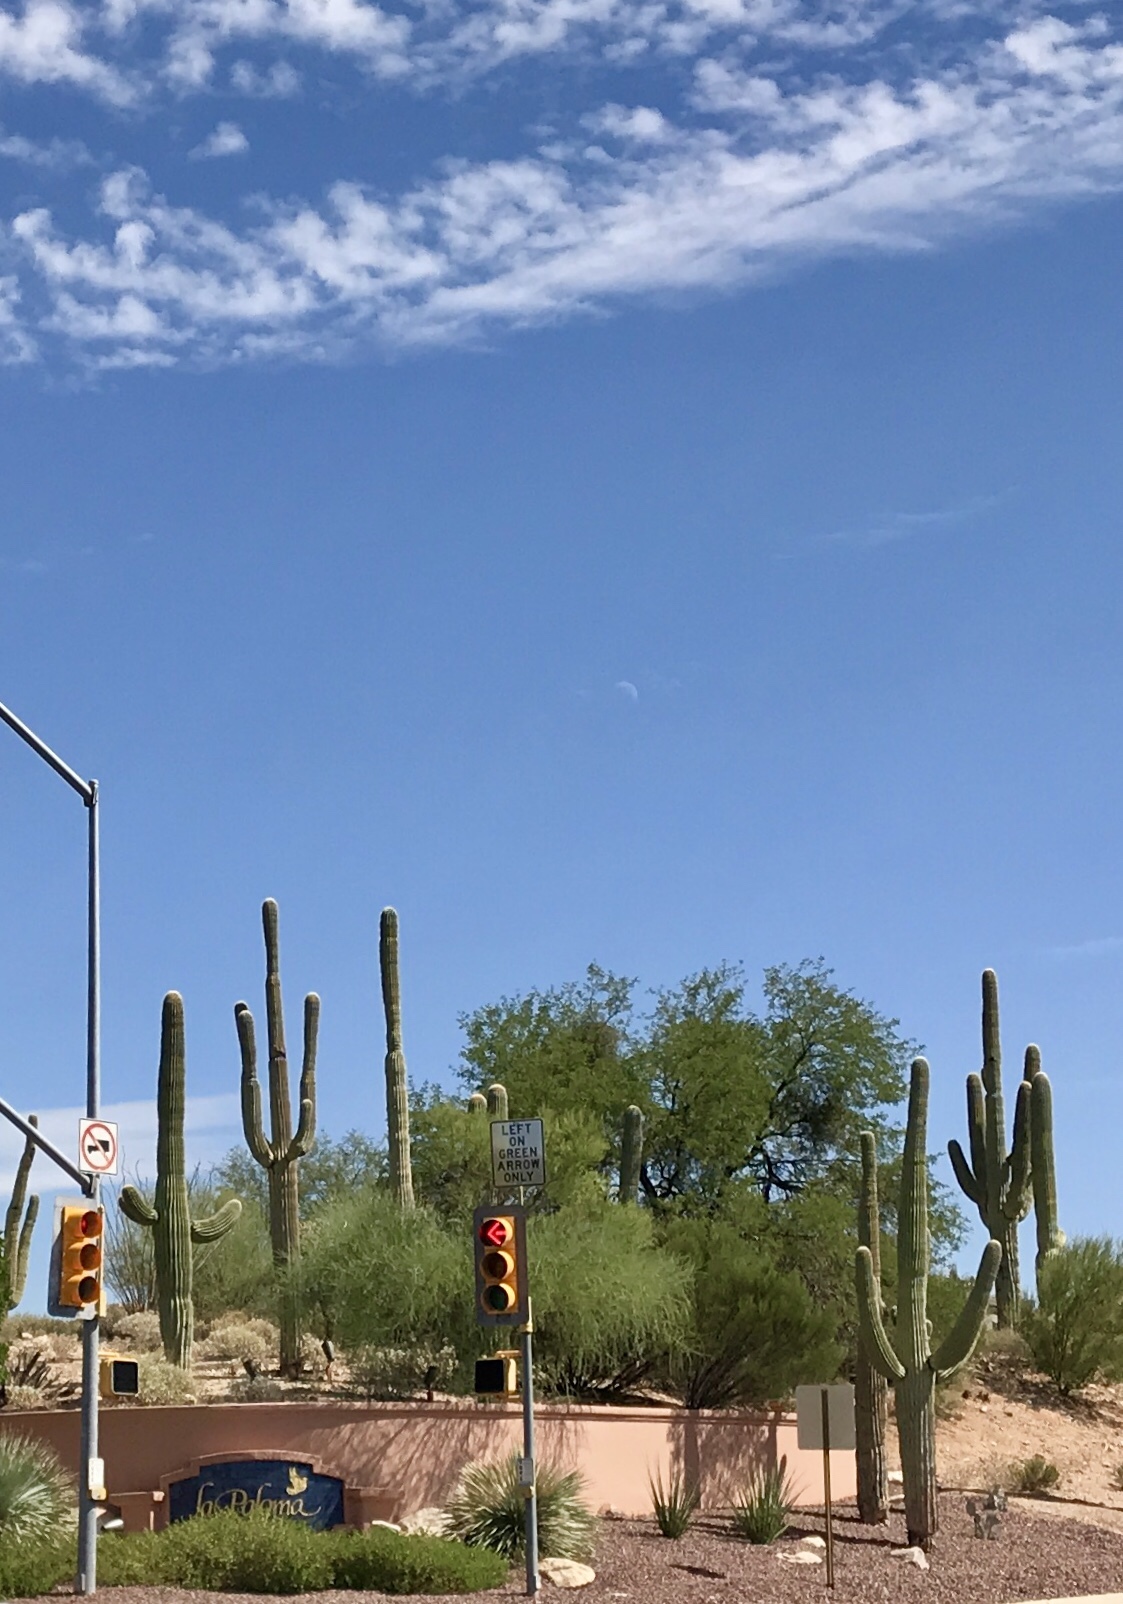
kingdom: Plantae
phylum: Tracheophyta
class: Magnoliopsida
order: Caryophyllales
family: Cactaceae
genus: Carnegiea
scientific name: Carnegiea gigantea
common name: Saguaro
